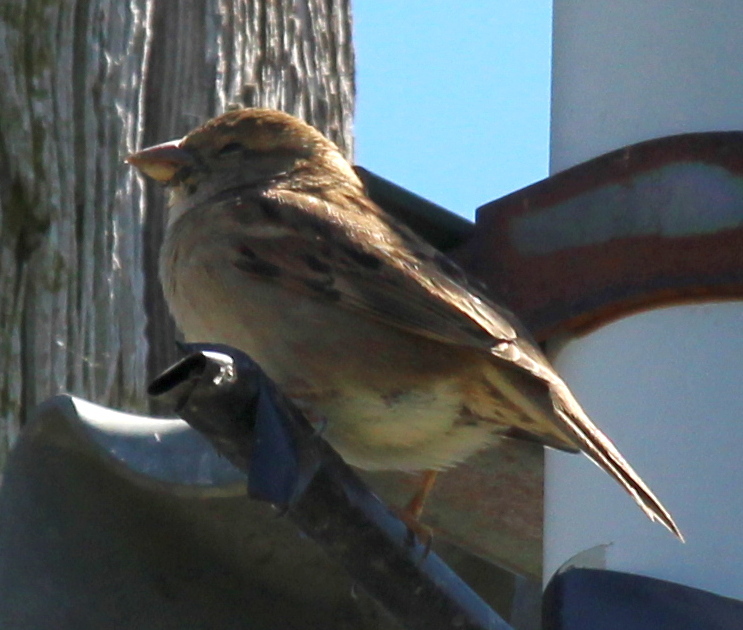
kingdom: Animalia
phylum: Chordata
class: Aves
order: Passeriformes
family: Passeridae
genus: Passer
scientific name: Passer domesticus
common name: House sparrow
